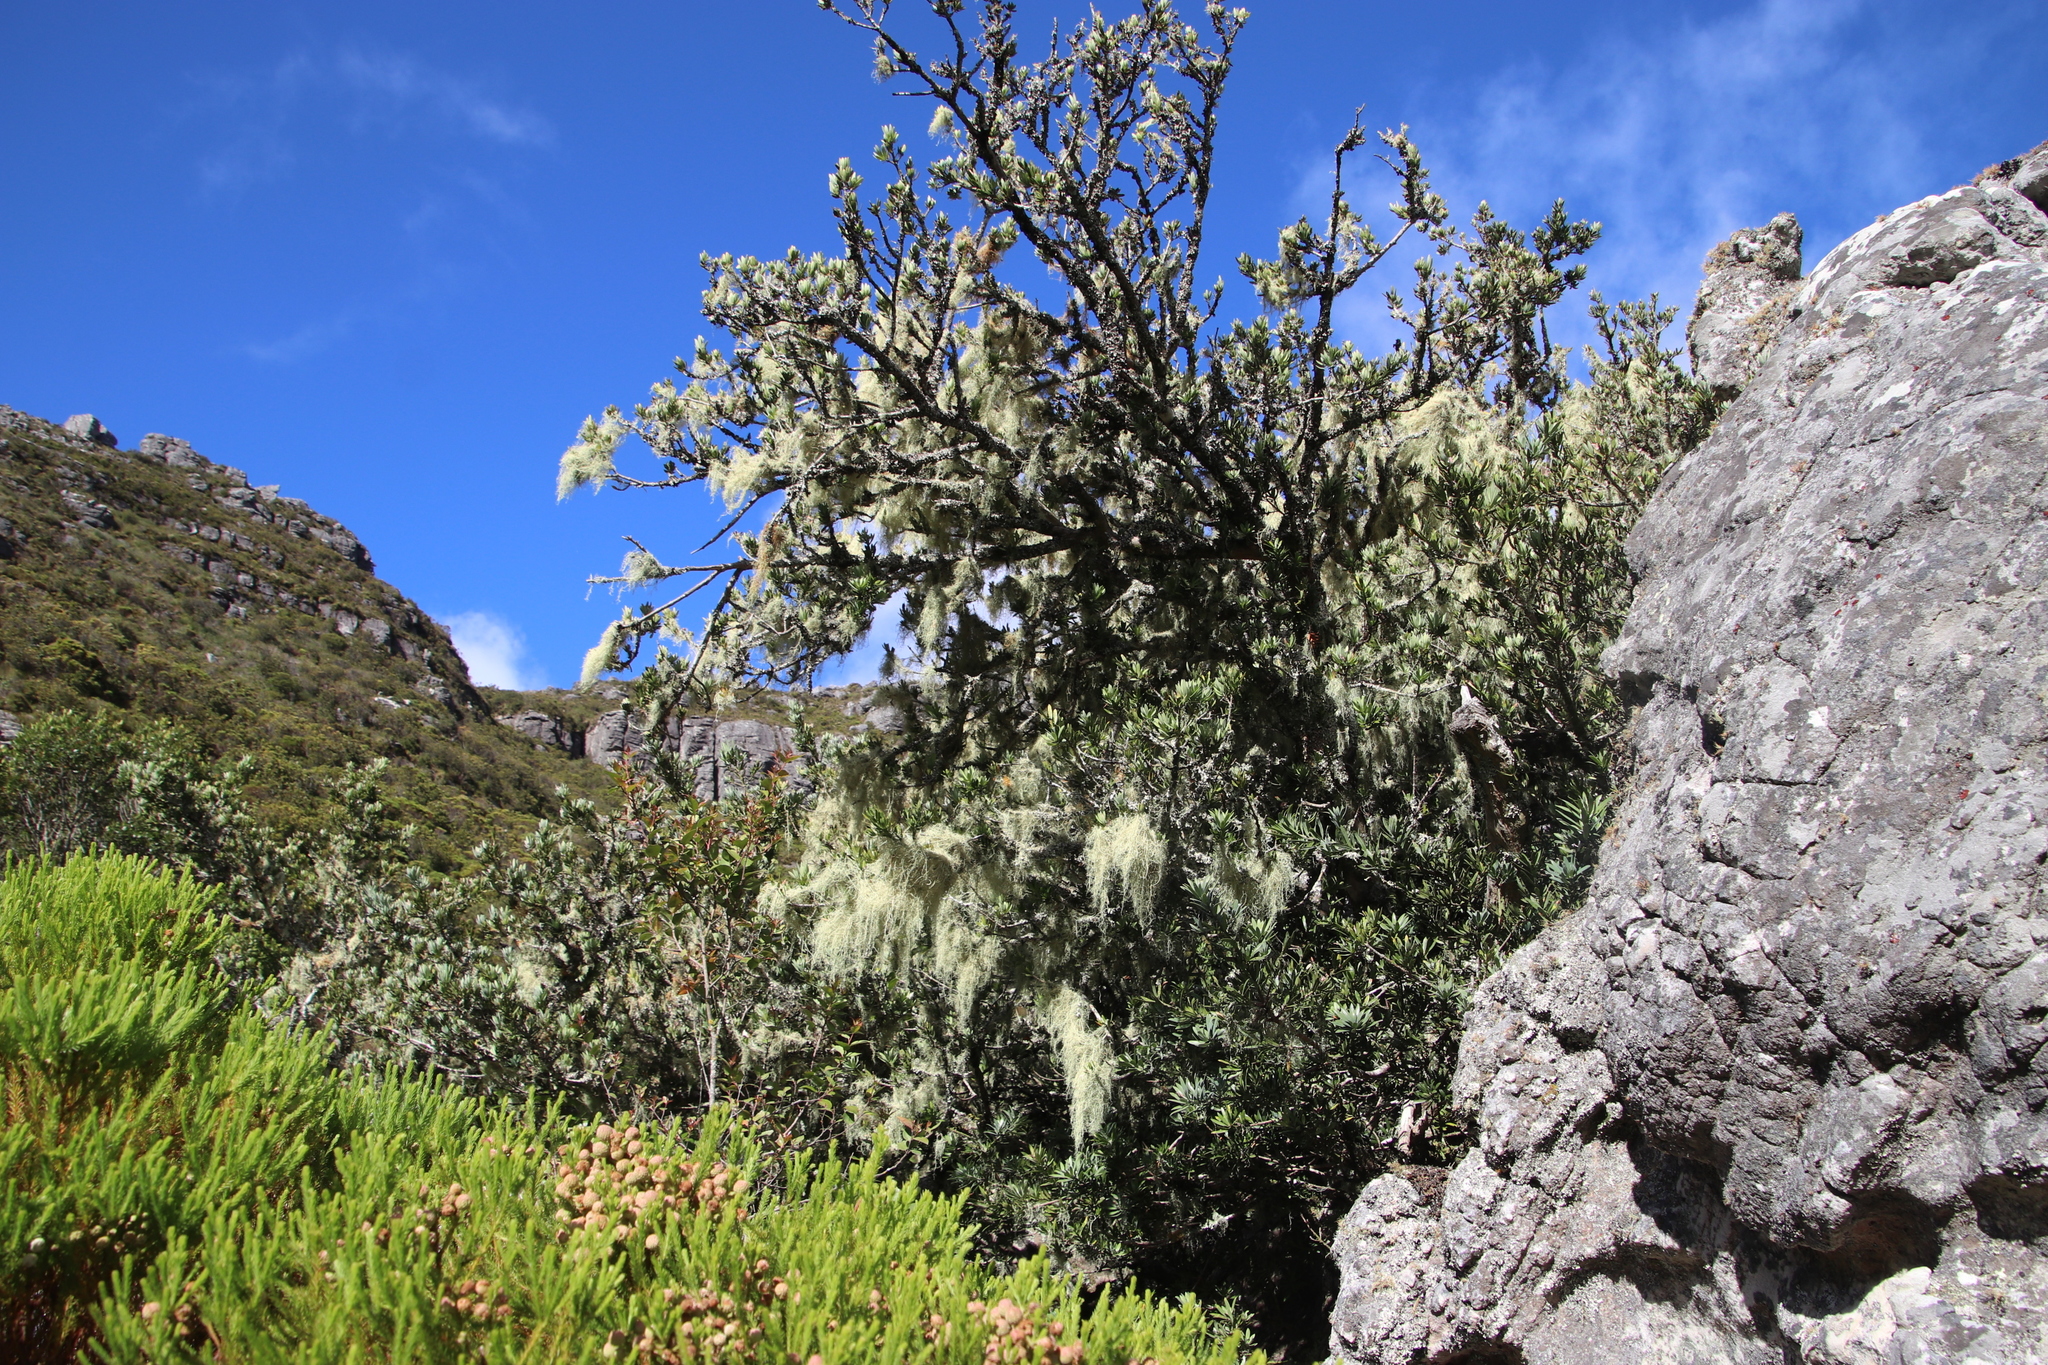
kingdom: Plantae
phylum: Tracheophyta
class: Pinopsida
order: Pinales
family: Podocarpaceae
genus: Podocarpus
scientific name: Podocarpus latifolius
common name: True yellowwood
